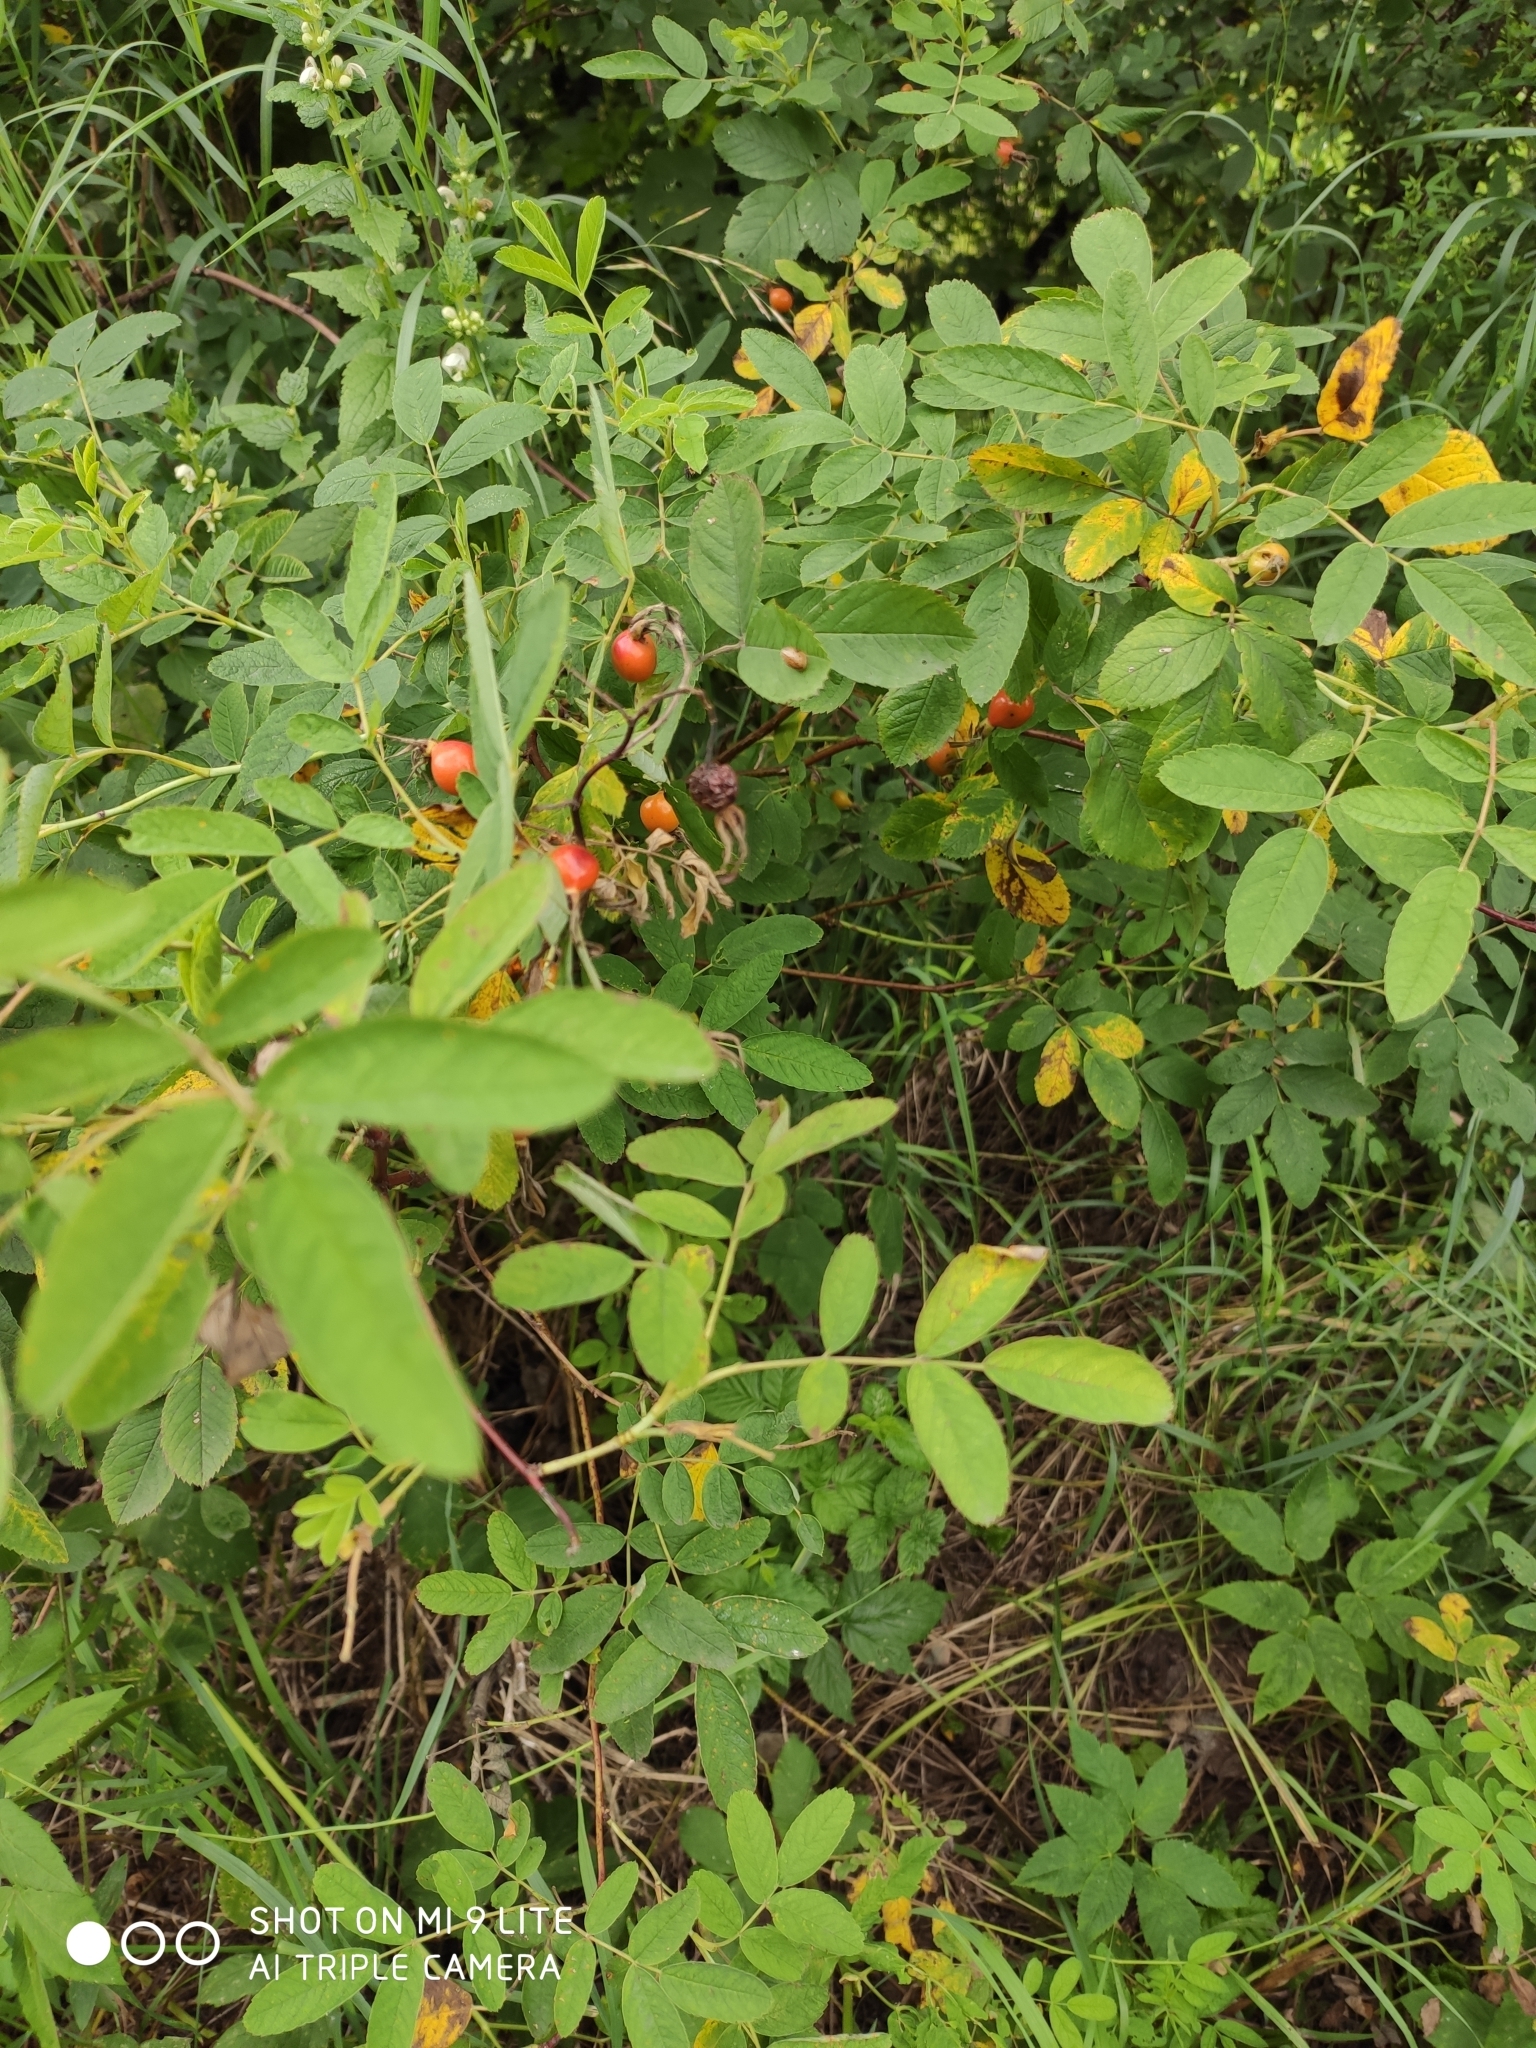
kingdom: Plantae
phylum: Tracheophyta
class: Magnoliopsida
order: Rosales
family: Rosaceae
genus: Rosa
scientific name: Rosa
